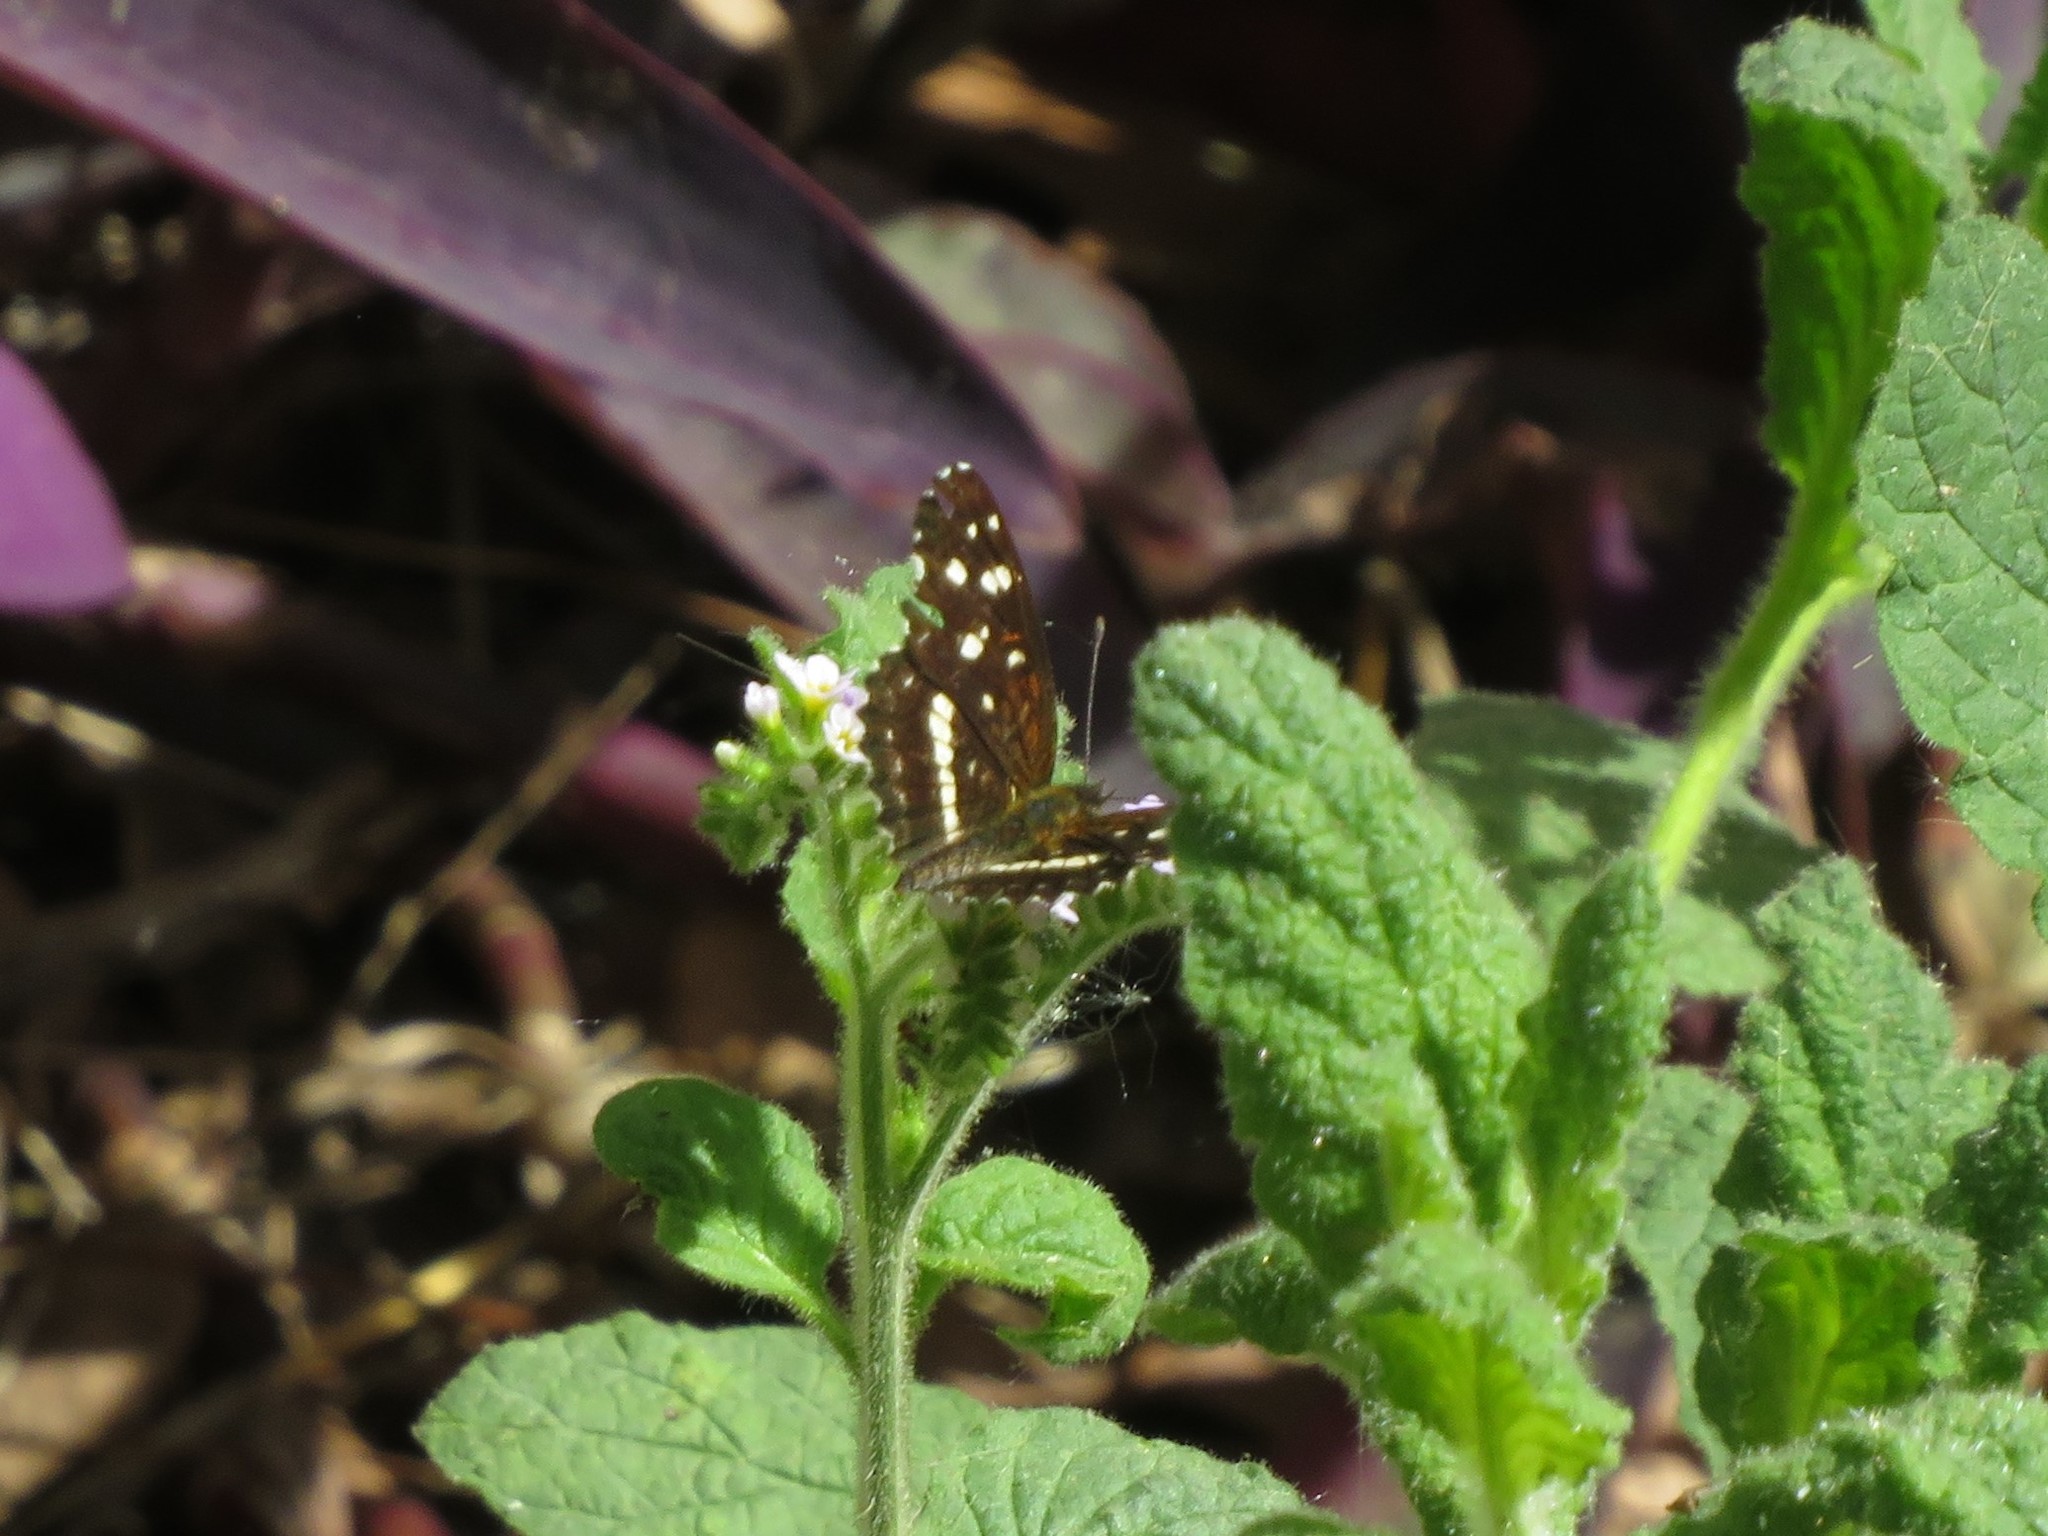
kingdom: Animalia
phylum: Arthropoda
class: Insecta
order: Lepidoptera
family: Nymphalidae
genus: Ortilia
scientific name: Ortilia ithra
